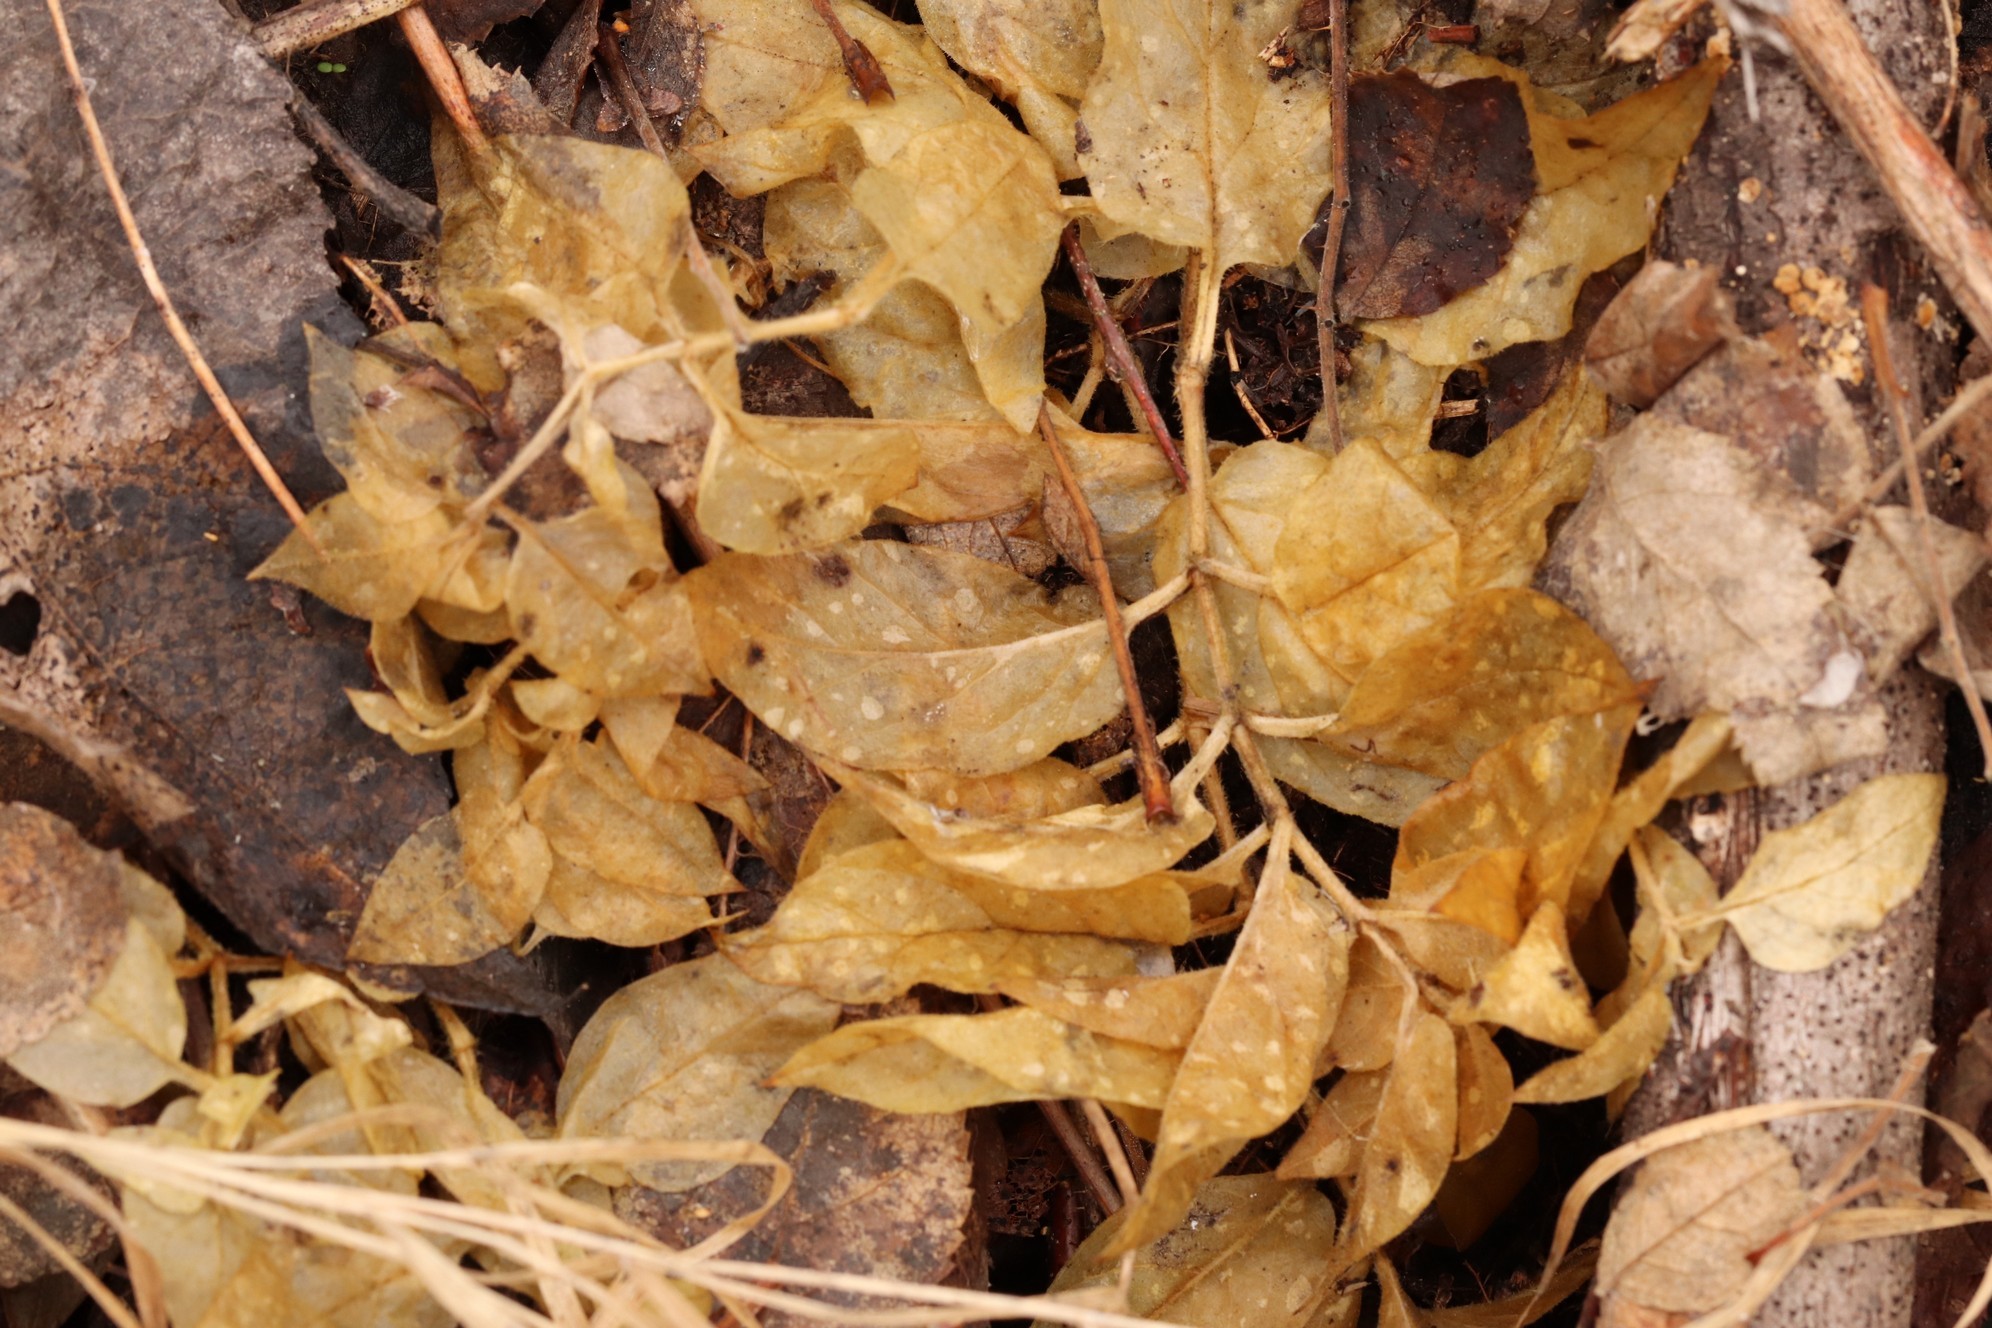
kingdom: Plantae
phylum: Tracheophyta
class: Magnoliopsida
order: Caryophyllales
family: Caryophyllaceae
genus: Stellaria
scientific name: Stellaria bungeana
